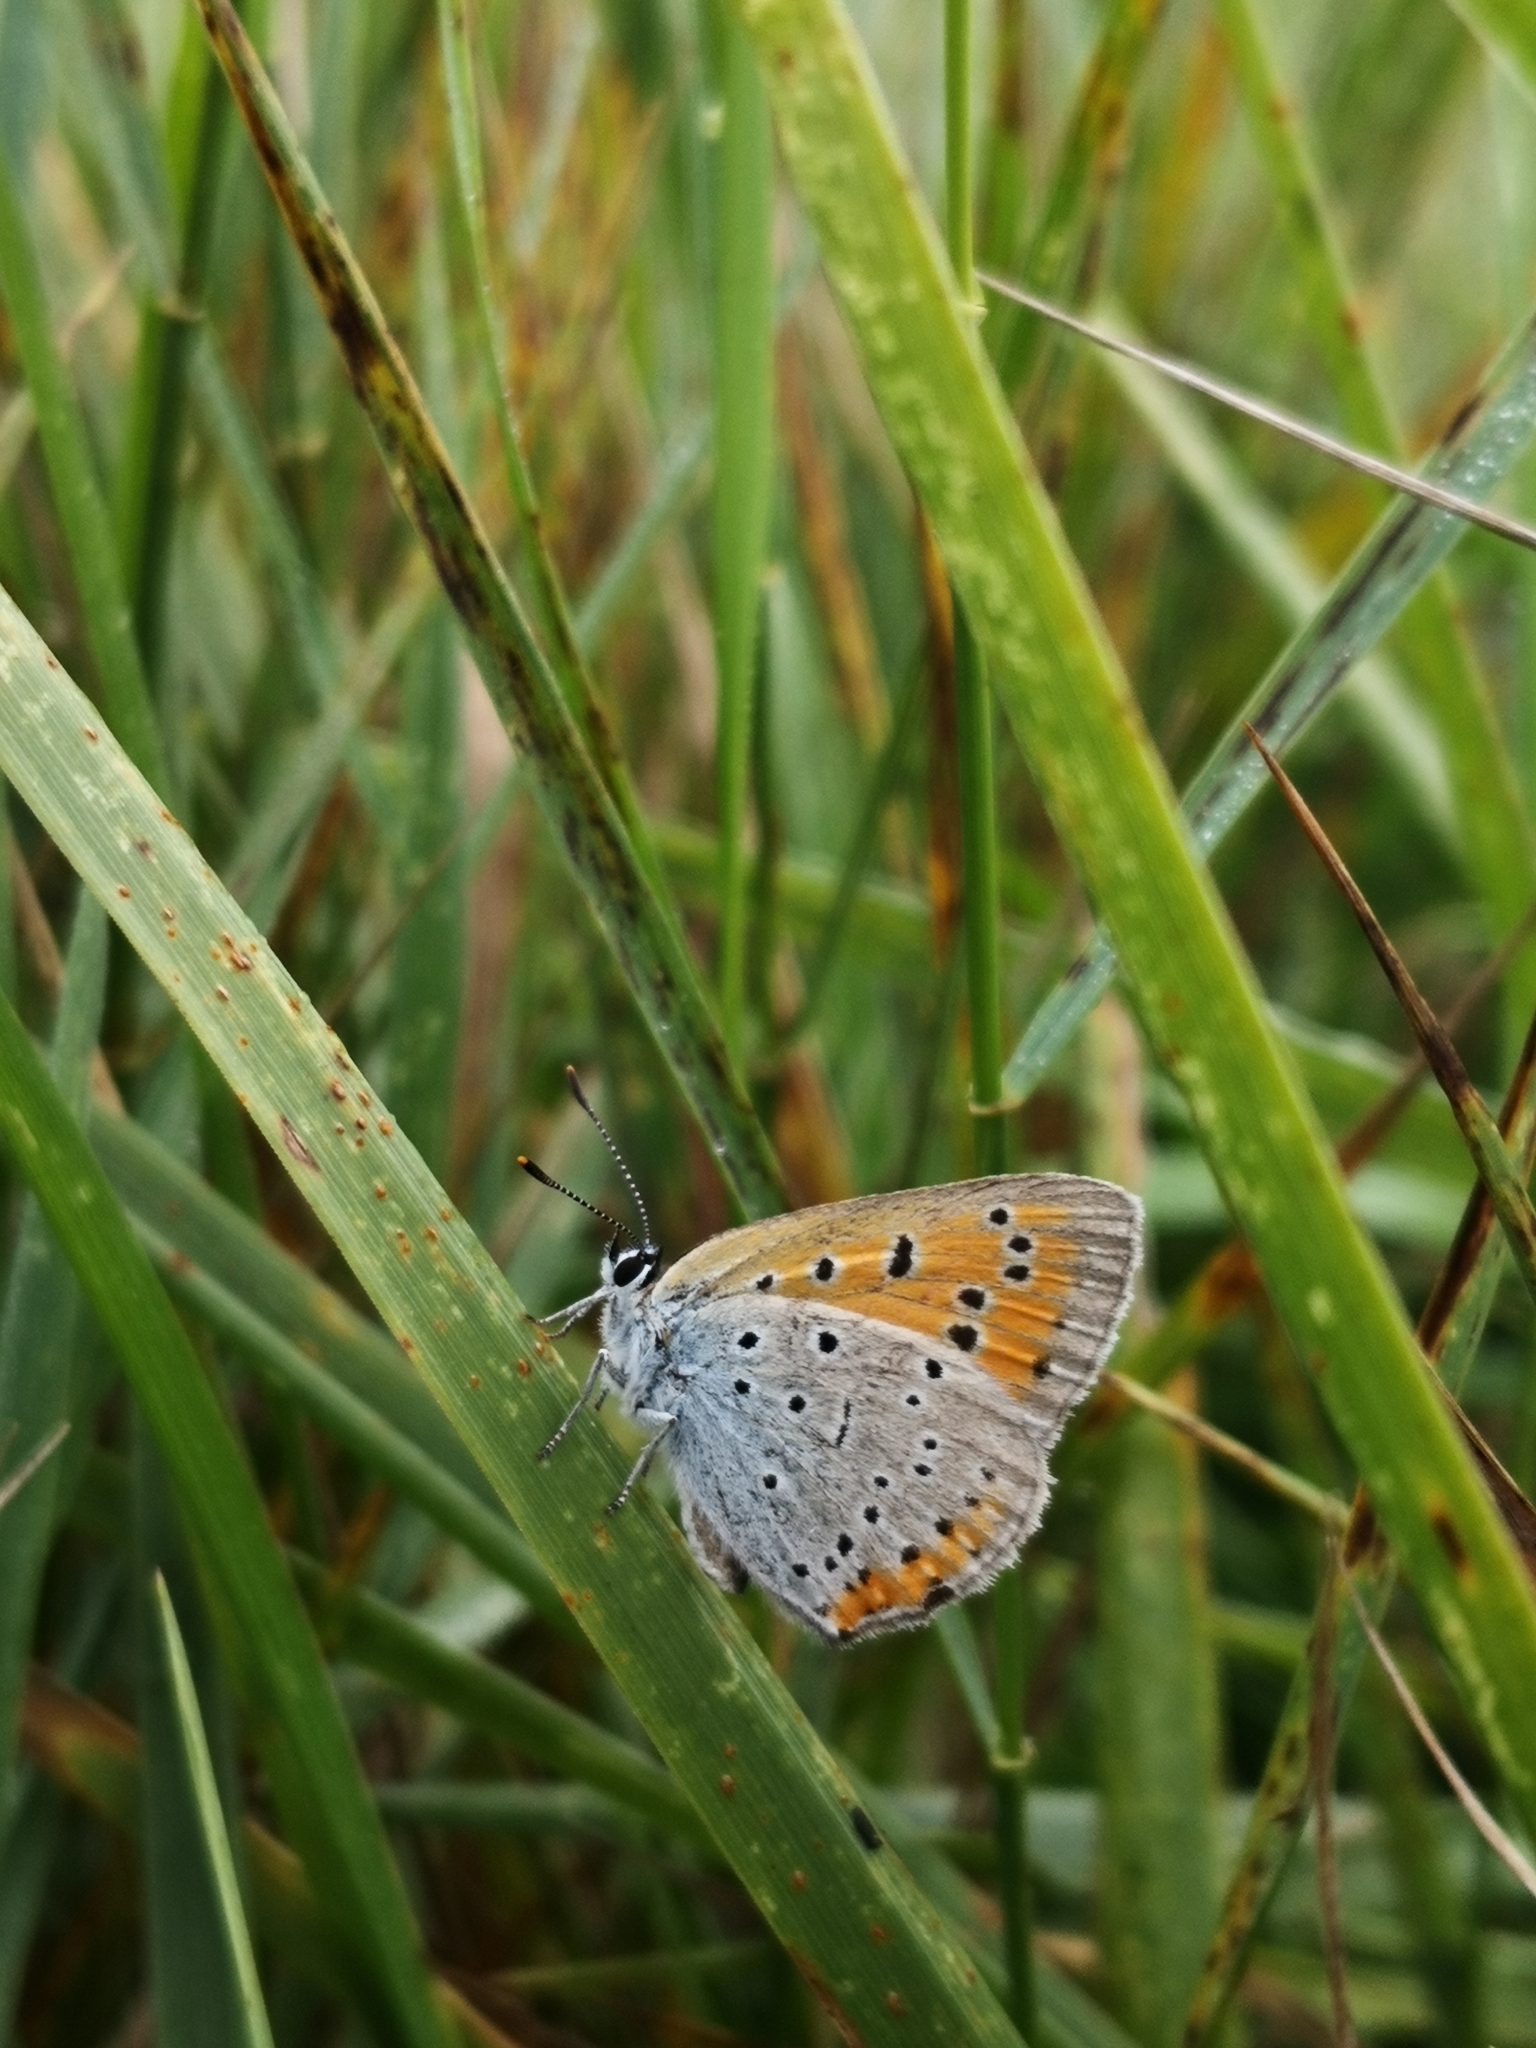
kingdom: Animalia
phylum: Arthropoda
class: Insecta
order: Lepidoptera
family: Lycaenidae
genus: Lycaena
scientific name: Lycaena dispar
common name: Large copper
